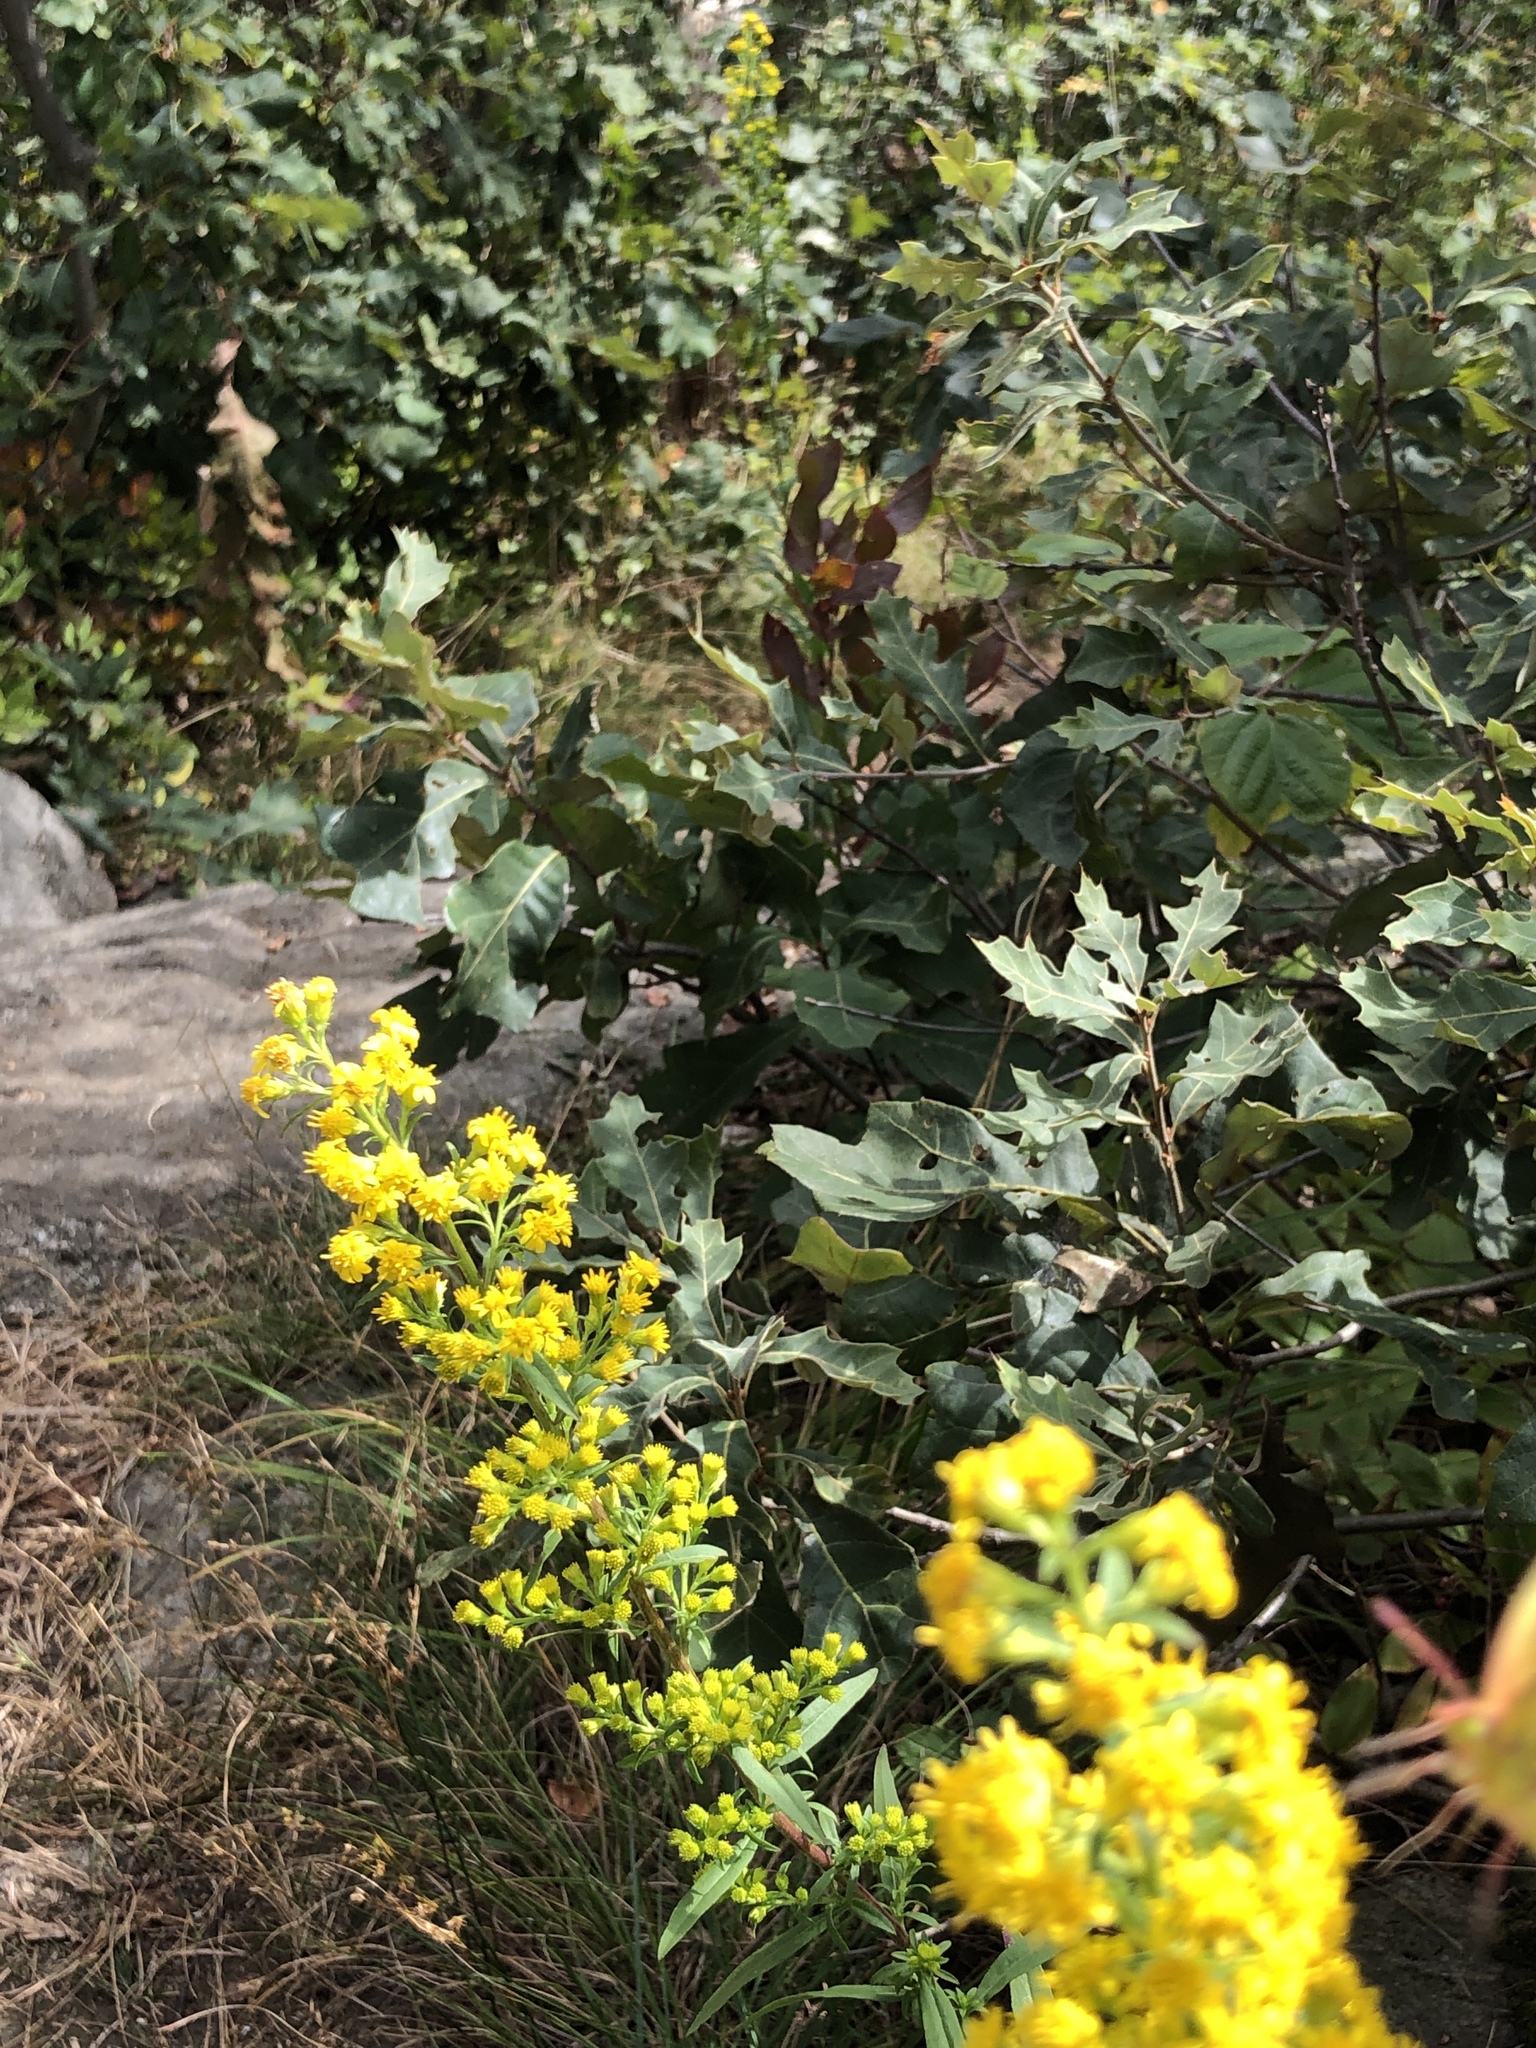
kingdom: Animalia
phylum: Arthropoda
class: Insecta
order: Lepidoptera
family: Pieridae
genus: Colias
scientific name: Colias eurytheme
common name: Alfalfa butterfly
